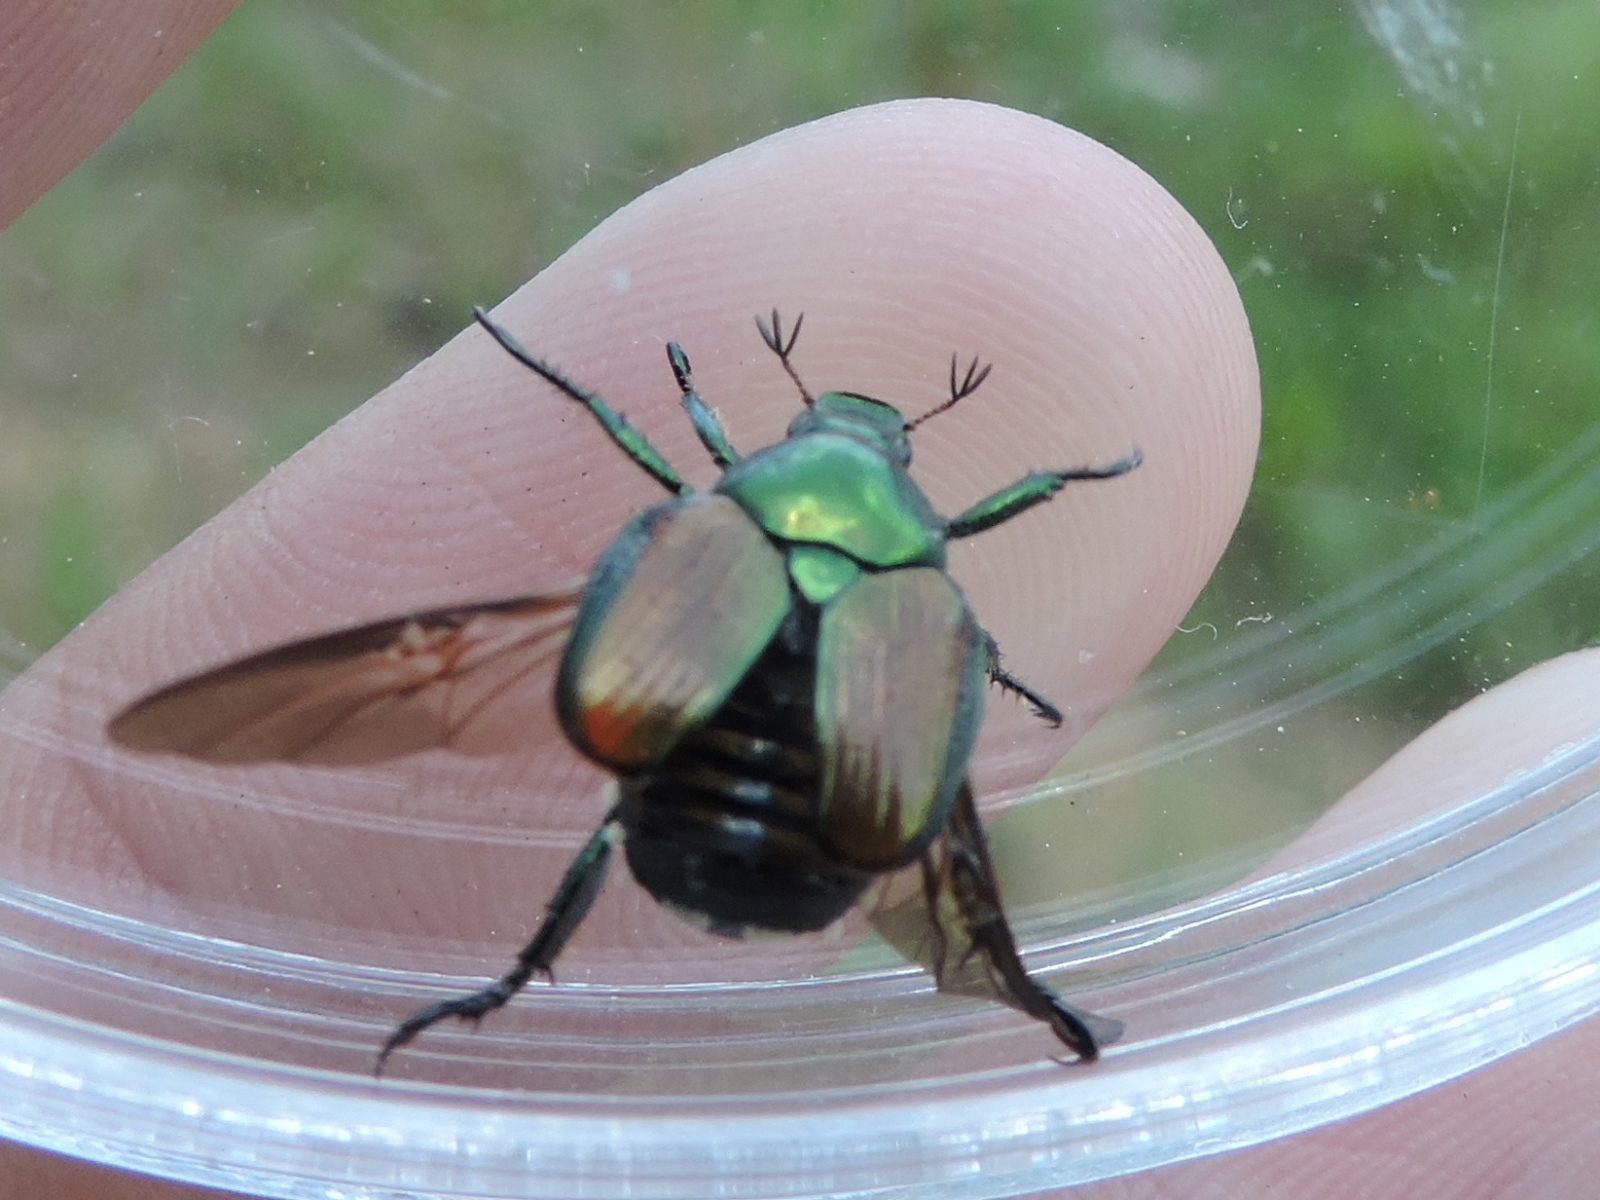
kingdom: Animalia
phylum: Arthropoda
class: Insecta
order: Coleoptera
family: Scarabaeidae
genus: Popillia
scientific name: Popillia japonica
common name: Japanese beetle
